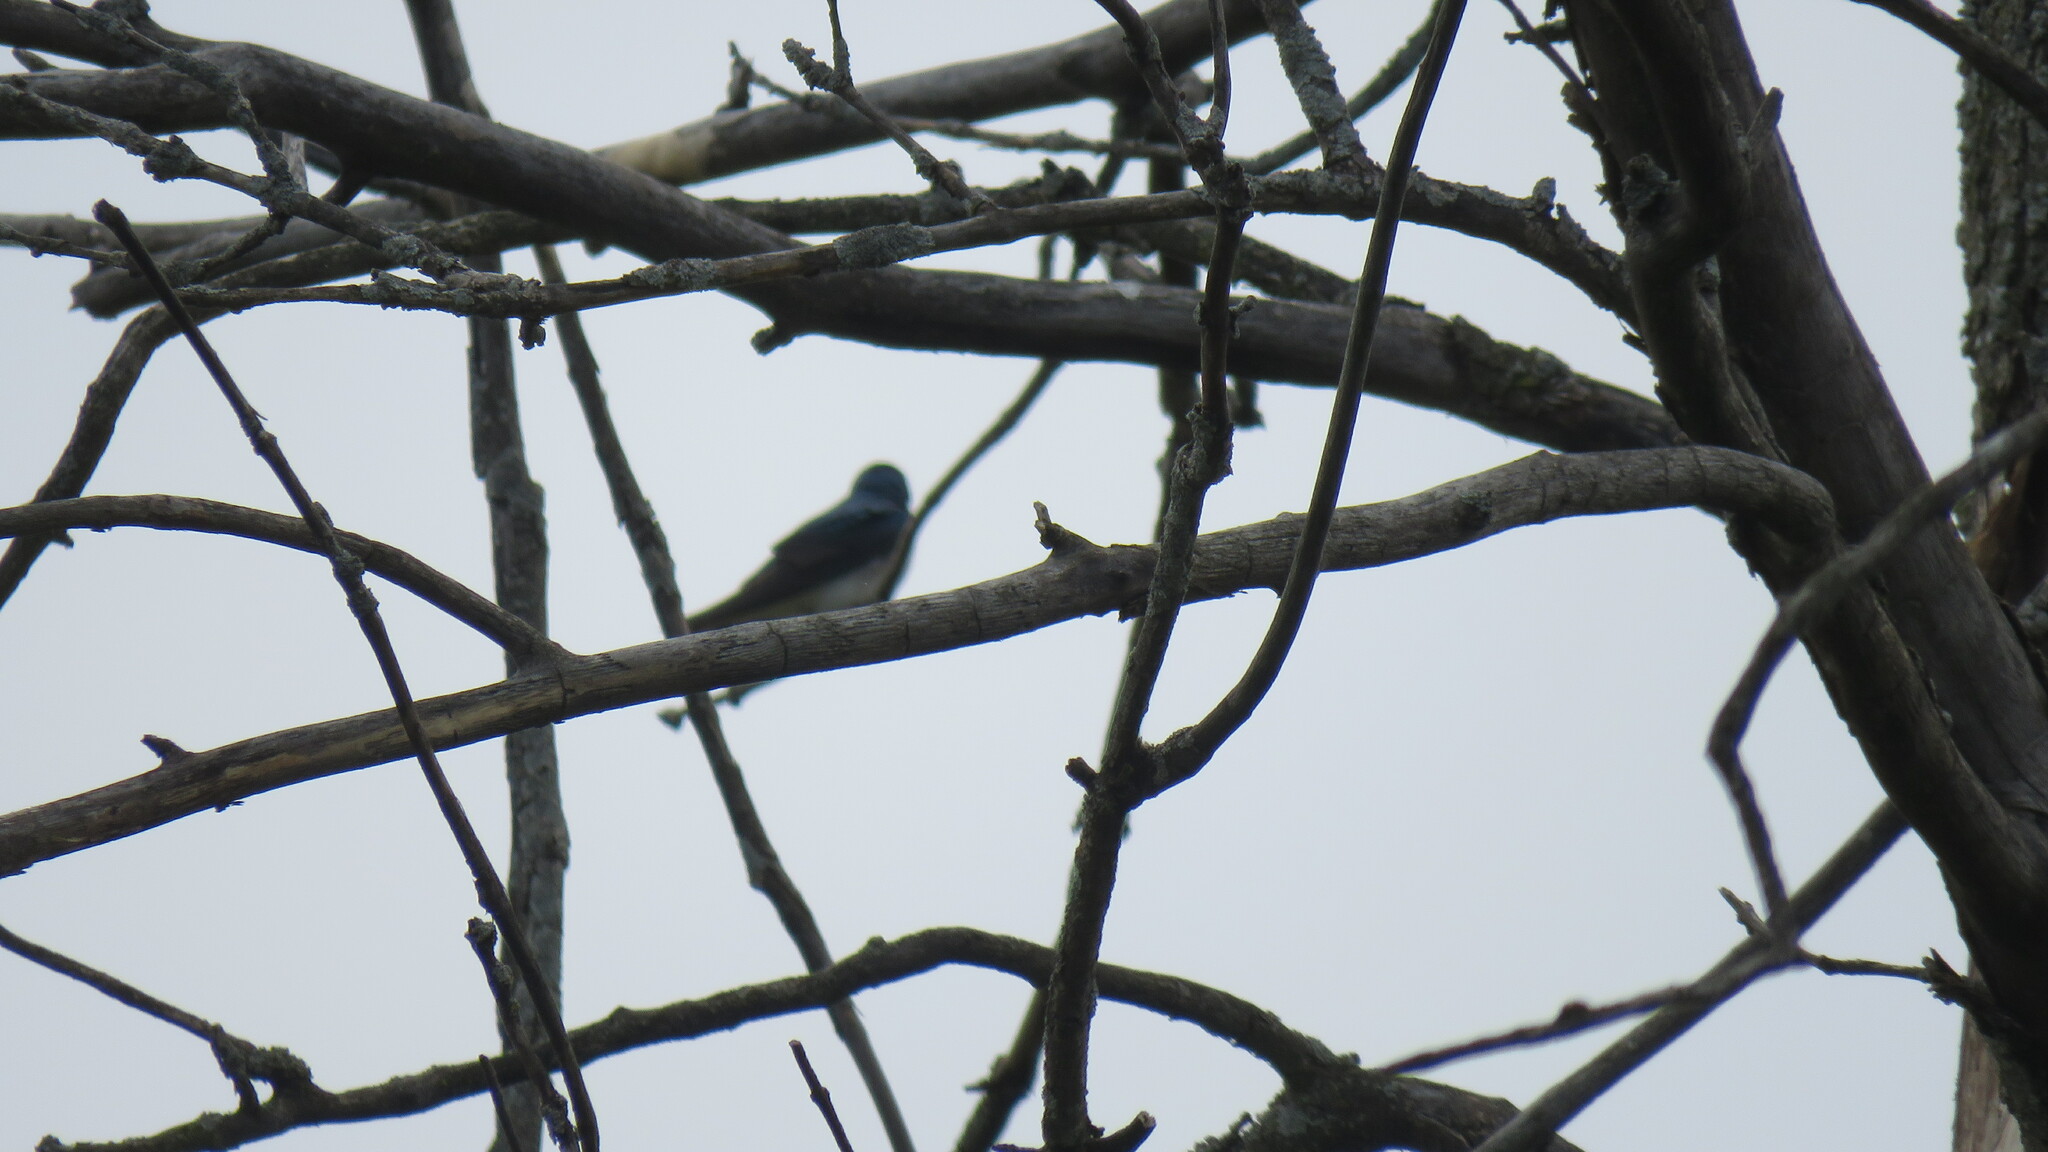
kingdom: Animalia
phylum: Chordata
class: Aves
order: Passeriformes
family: Hirundinidae
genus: Tachycineta
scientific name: Tachycineta bicolor
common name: Tree swallow
